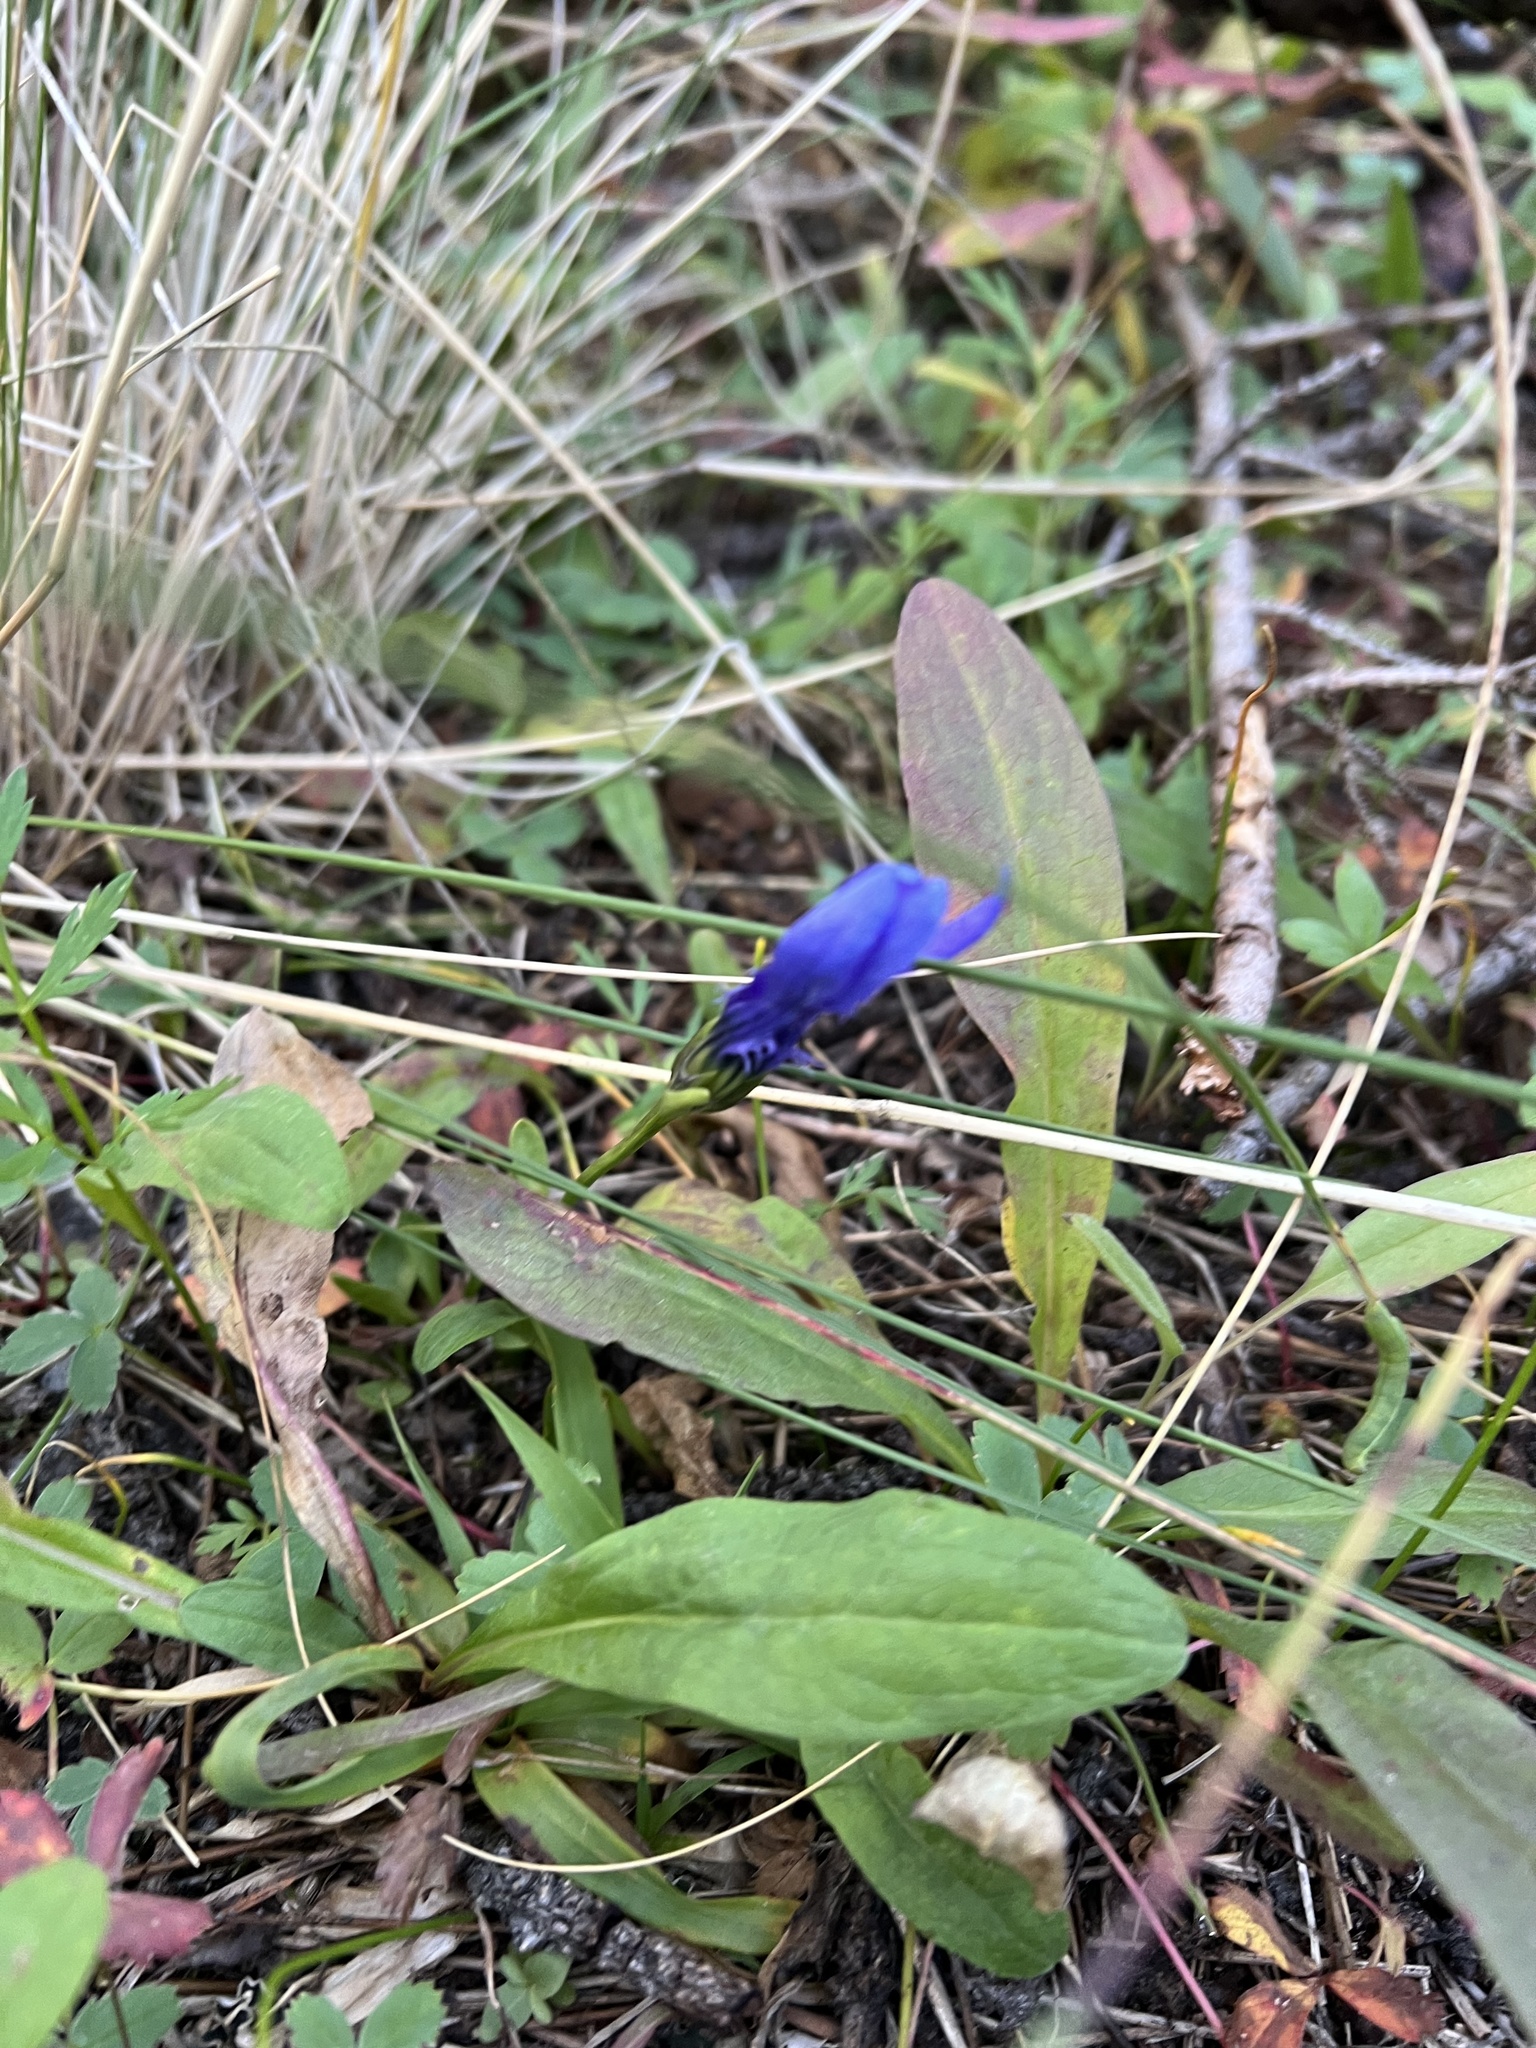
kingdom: Plantae
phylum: Tracheophyta
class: Magnoliopsida
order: Gentianales
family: Gentianaceae
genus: Gentianopsis
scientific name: Gentianopsis barbellata
